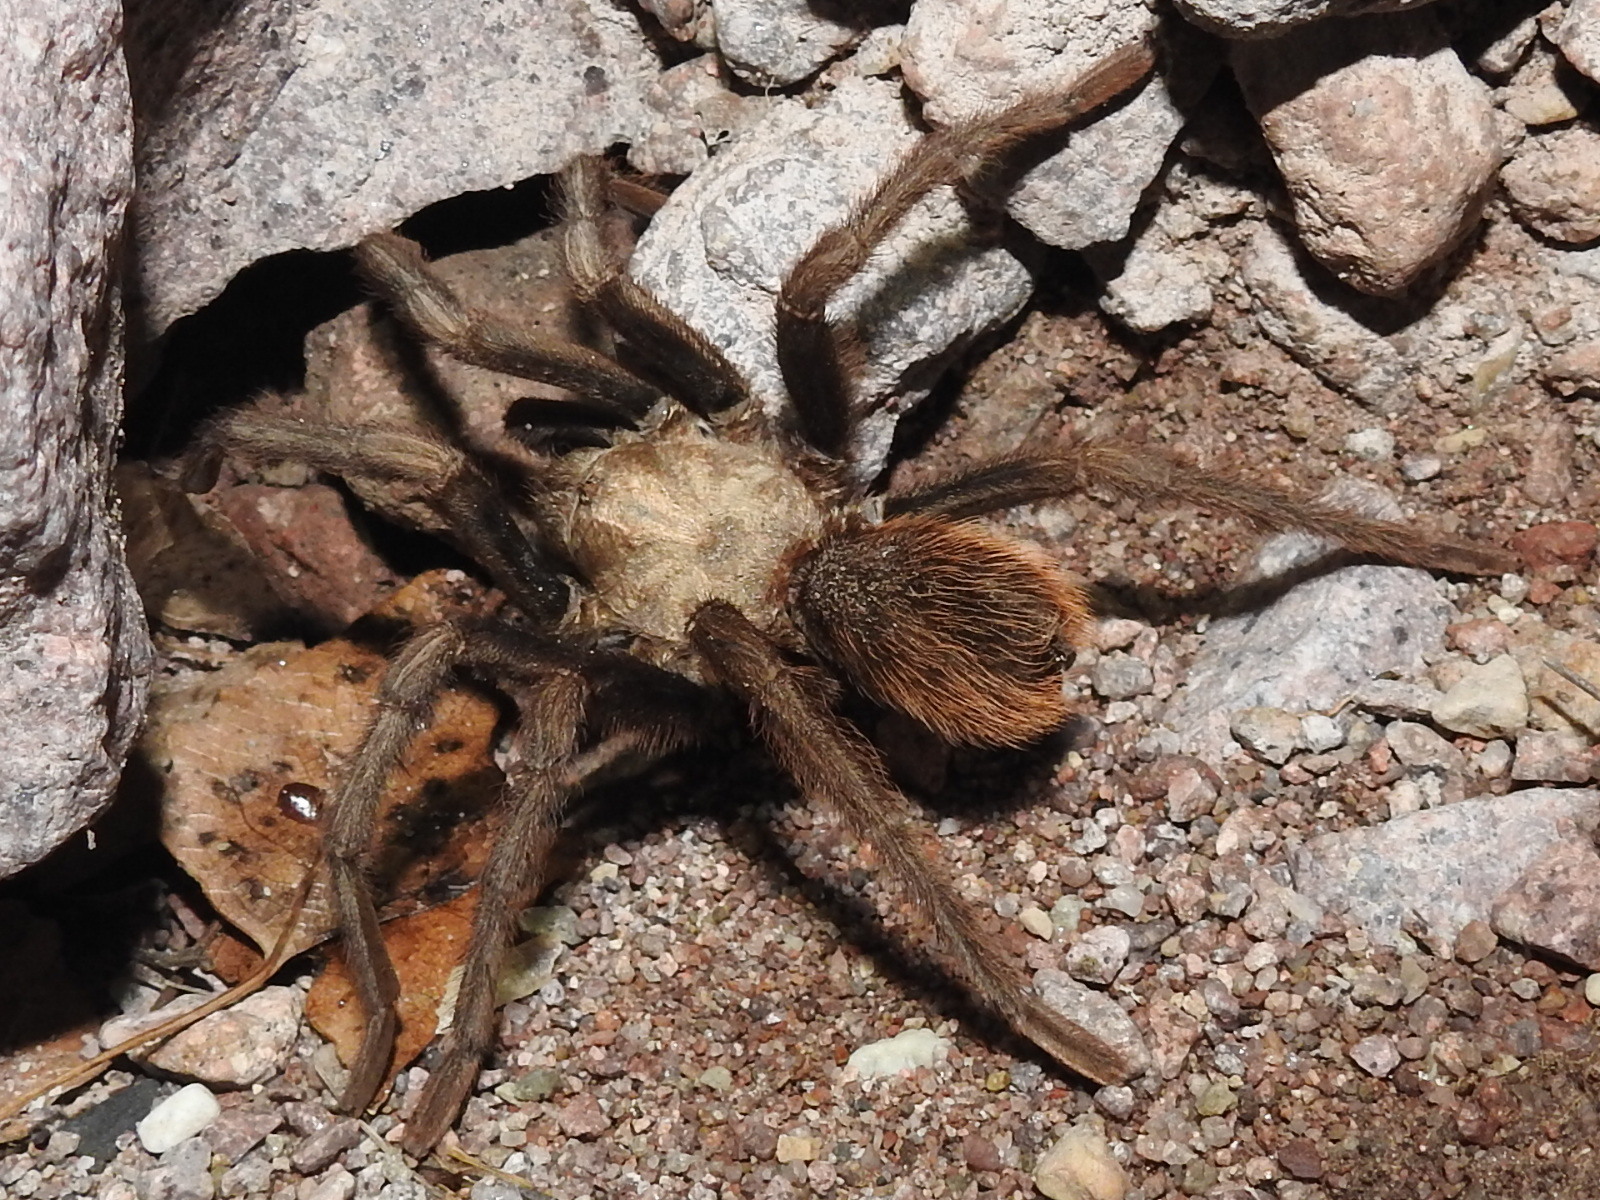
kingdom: Animalia
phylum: Arthropoda
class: Arachnida
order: Araneae
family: Theraphosidae
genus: Aphonopelma
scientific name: Aphonopelma chalcodes
